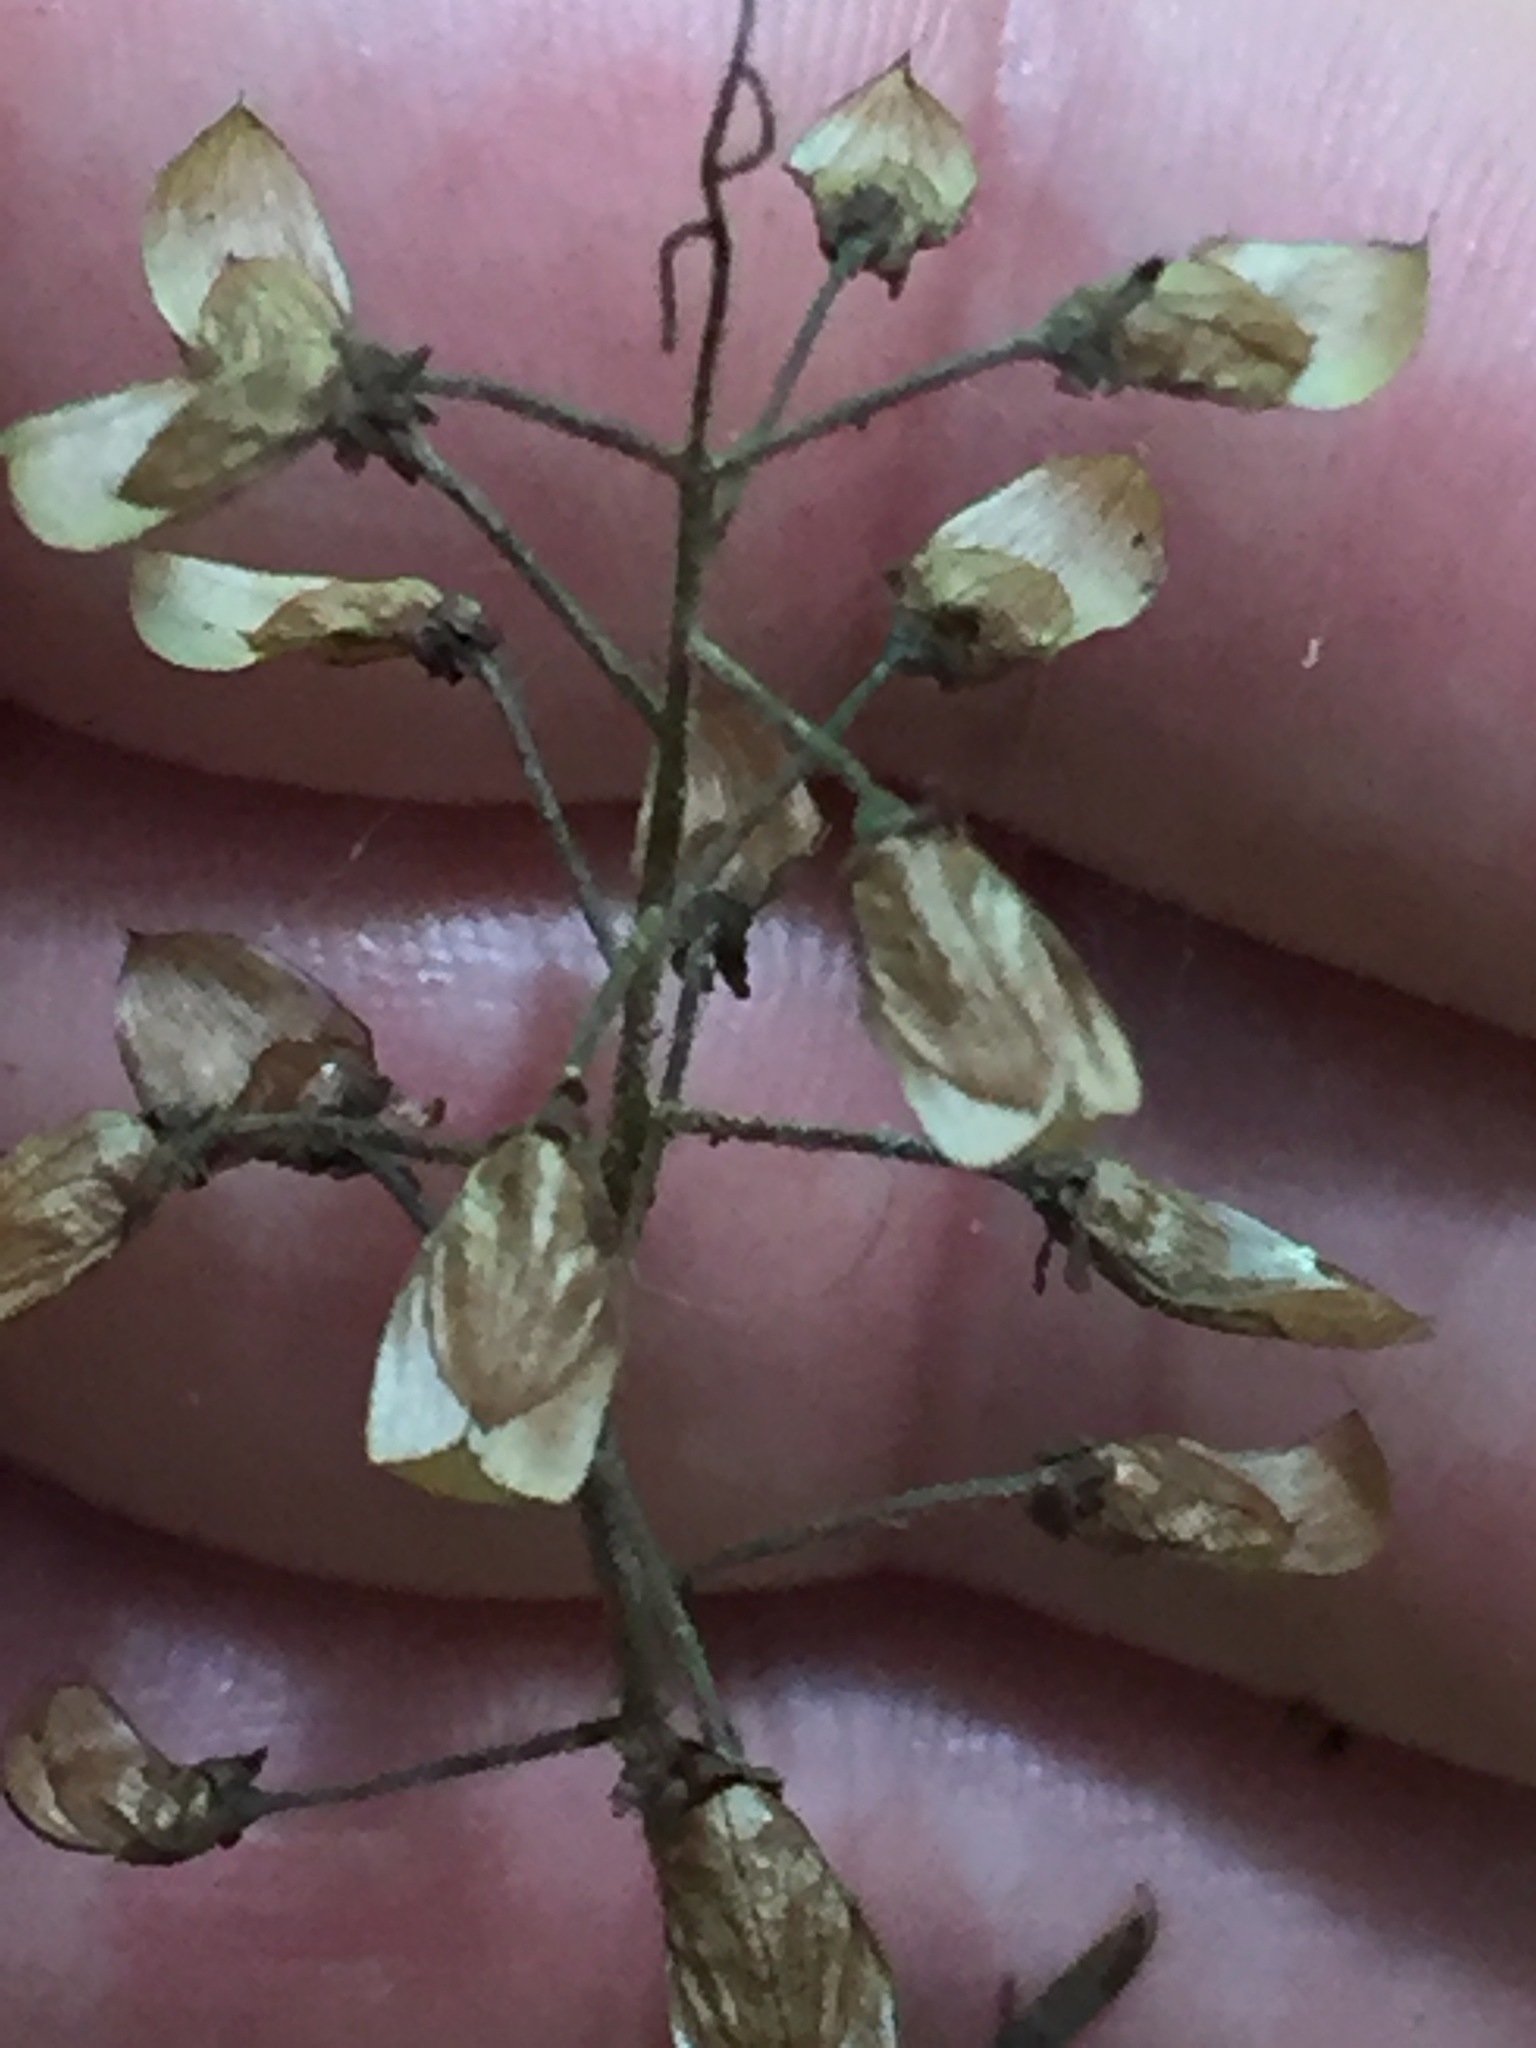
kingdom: Plantae
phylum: Tracheophyta
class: Magnoliopsida
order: Saxifragales
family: Saxifragaceae
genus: Tiarella
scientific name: Tiarella stolonifera
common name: Stoloniferous foamflower
